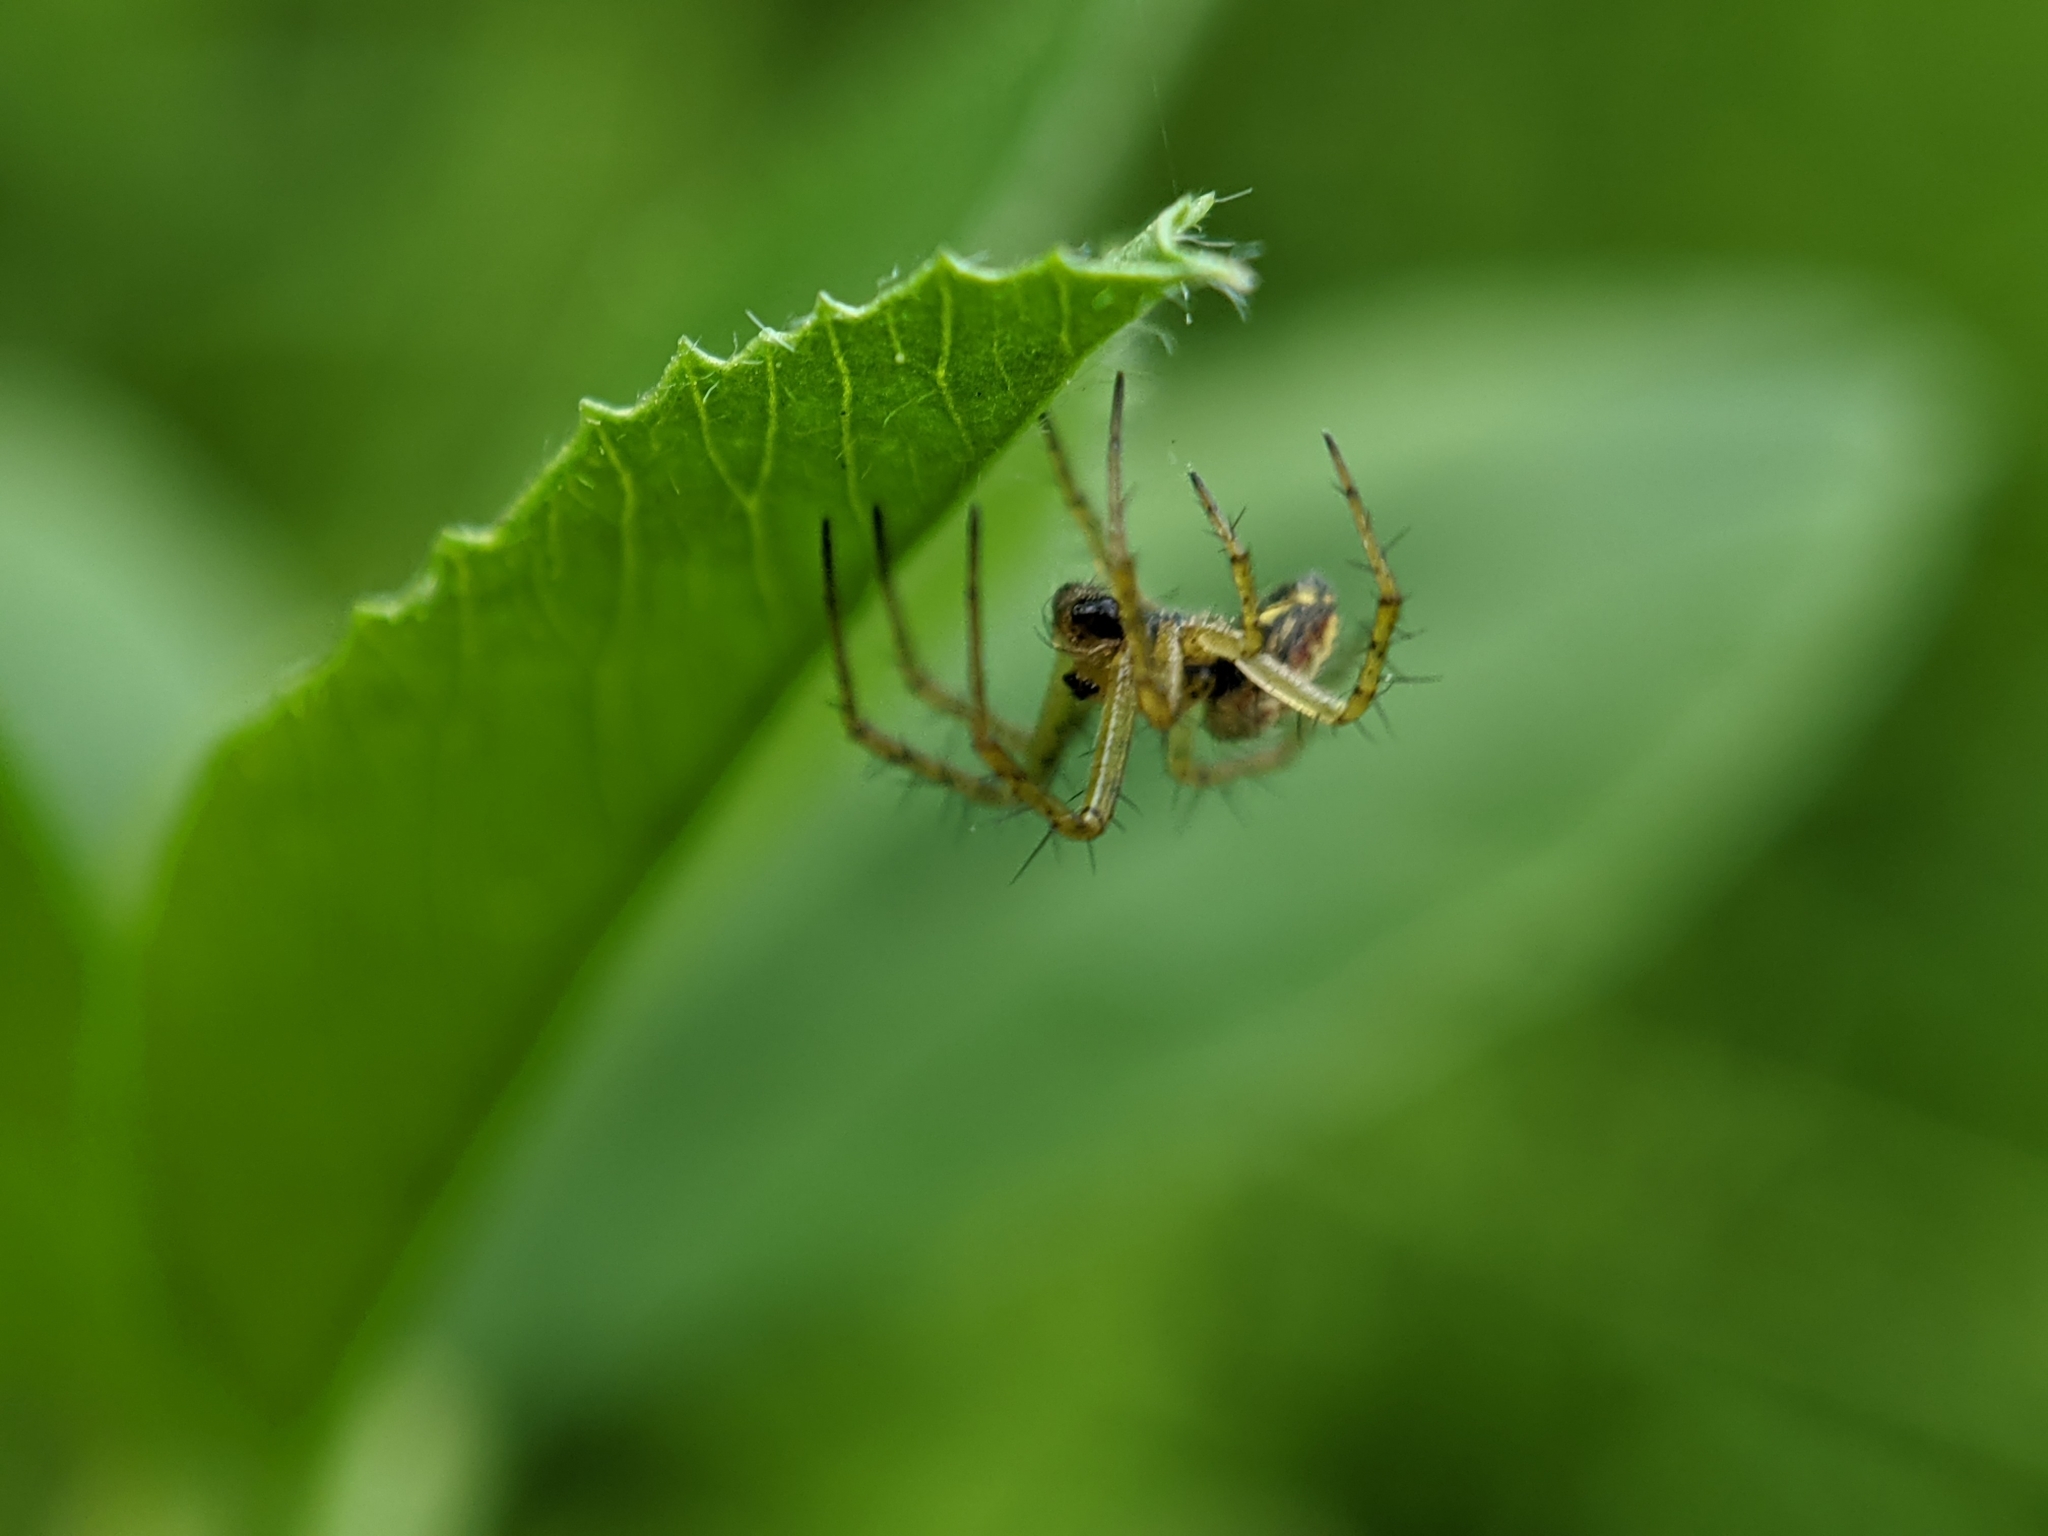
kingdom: Animalia
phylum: Arthropoda
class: Arachnida
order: Araneae
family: Araneidae
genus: Mangora
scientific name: Mangora acalypha
